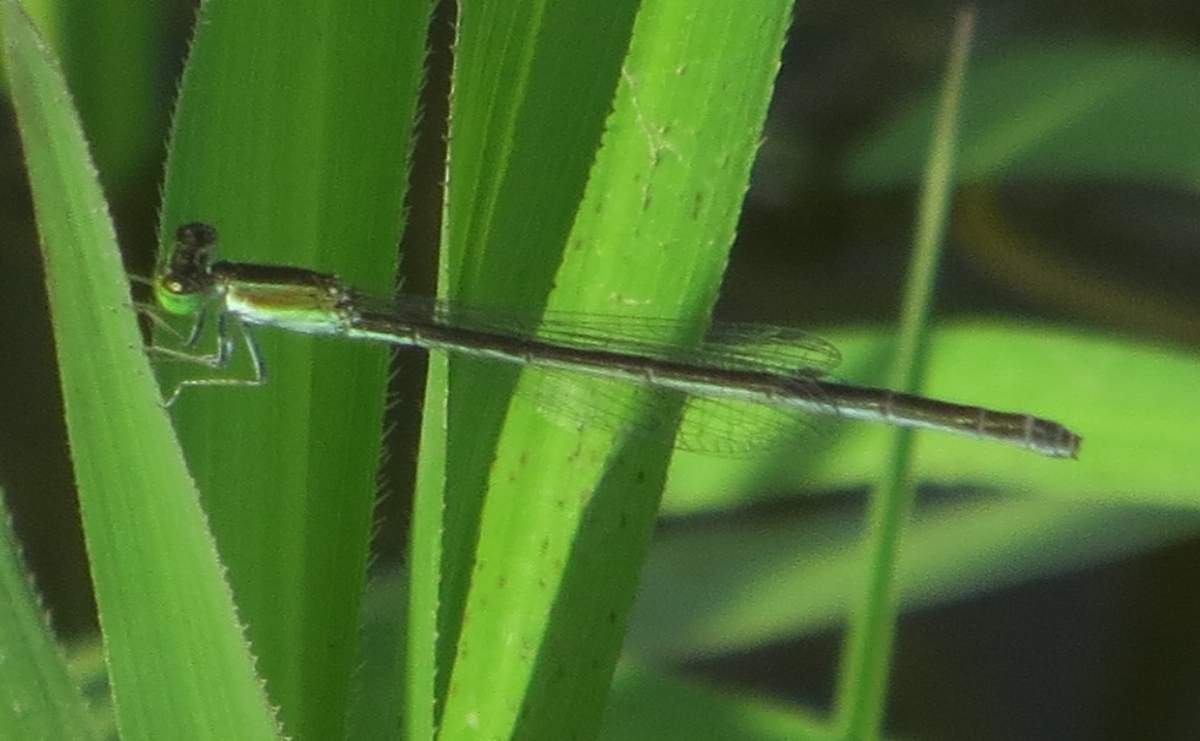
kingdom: Animalia
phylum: Arthropoda
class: Insecta
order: Odonata
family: Coenagrionidae
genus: Ischnura
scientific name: Ischnura hastata
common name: Citrine forktail
